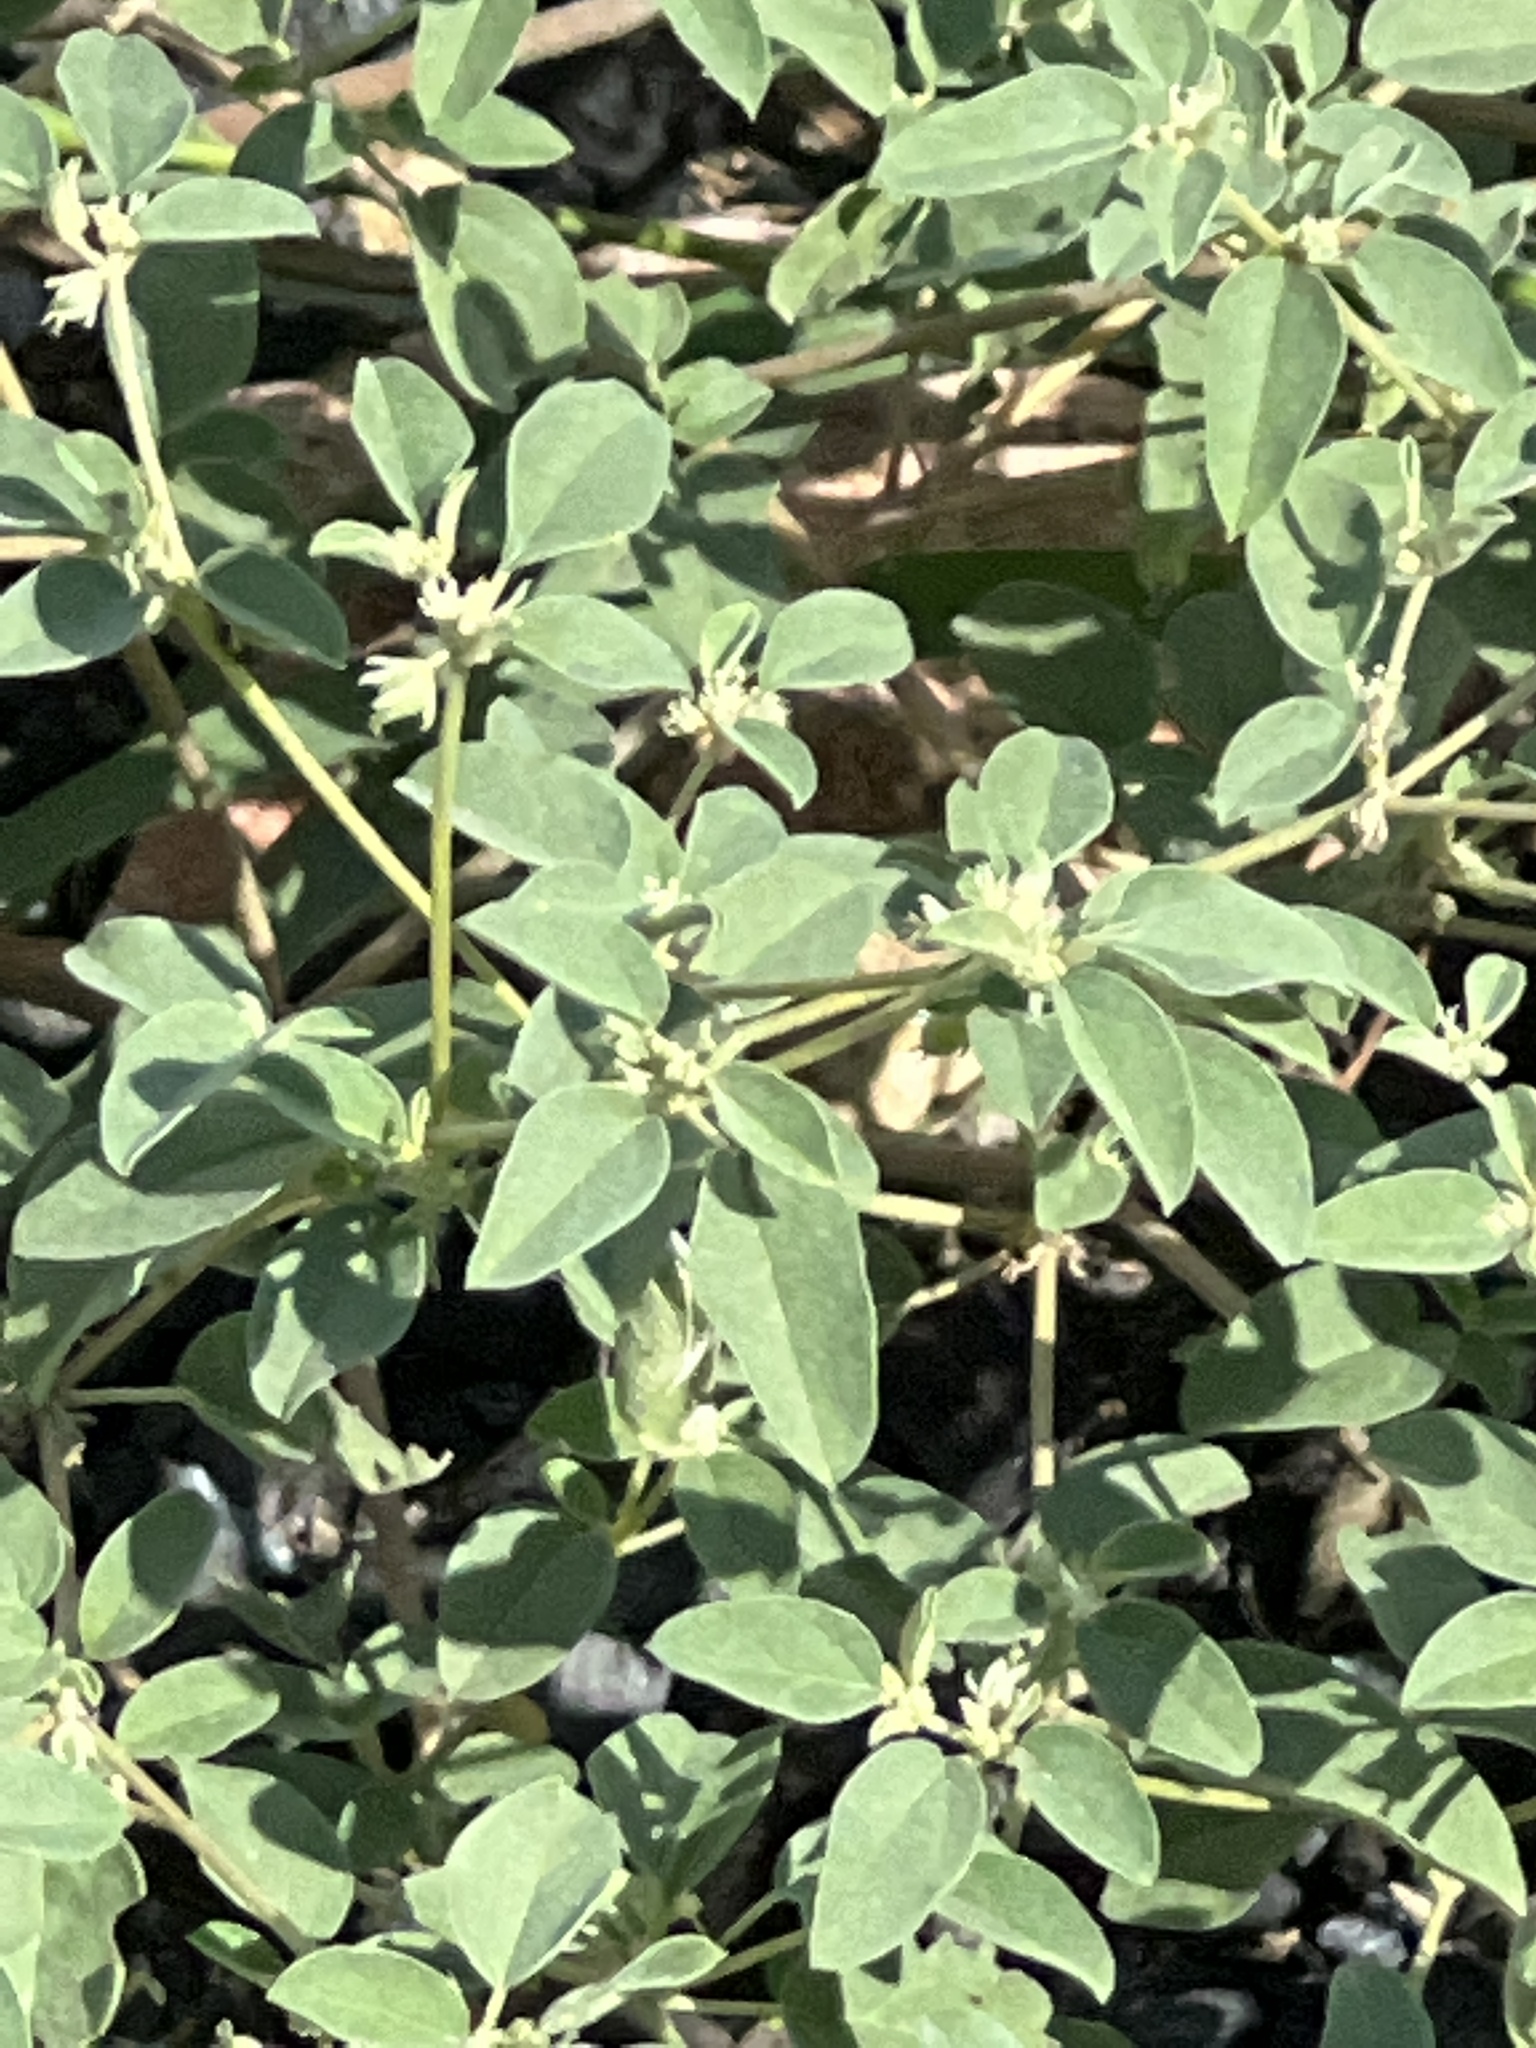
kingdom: Plantae
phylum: Tracheophyta
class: Magnoliopsida
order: Malpighiales
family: Euphorbiaceae
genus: Croton
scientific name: Croton monanthogynus
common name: One-seed croton
